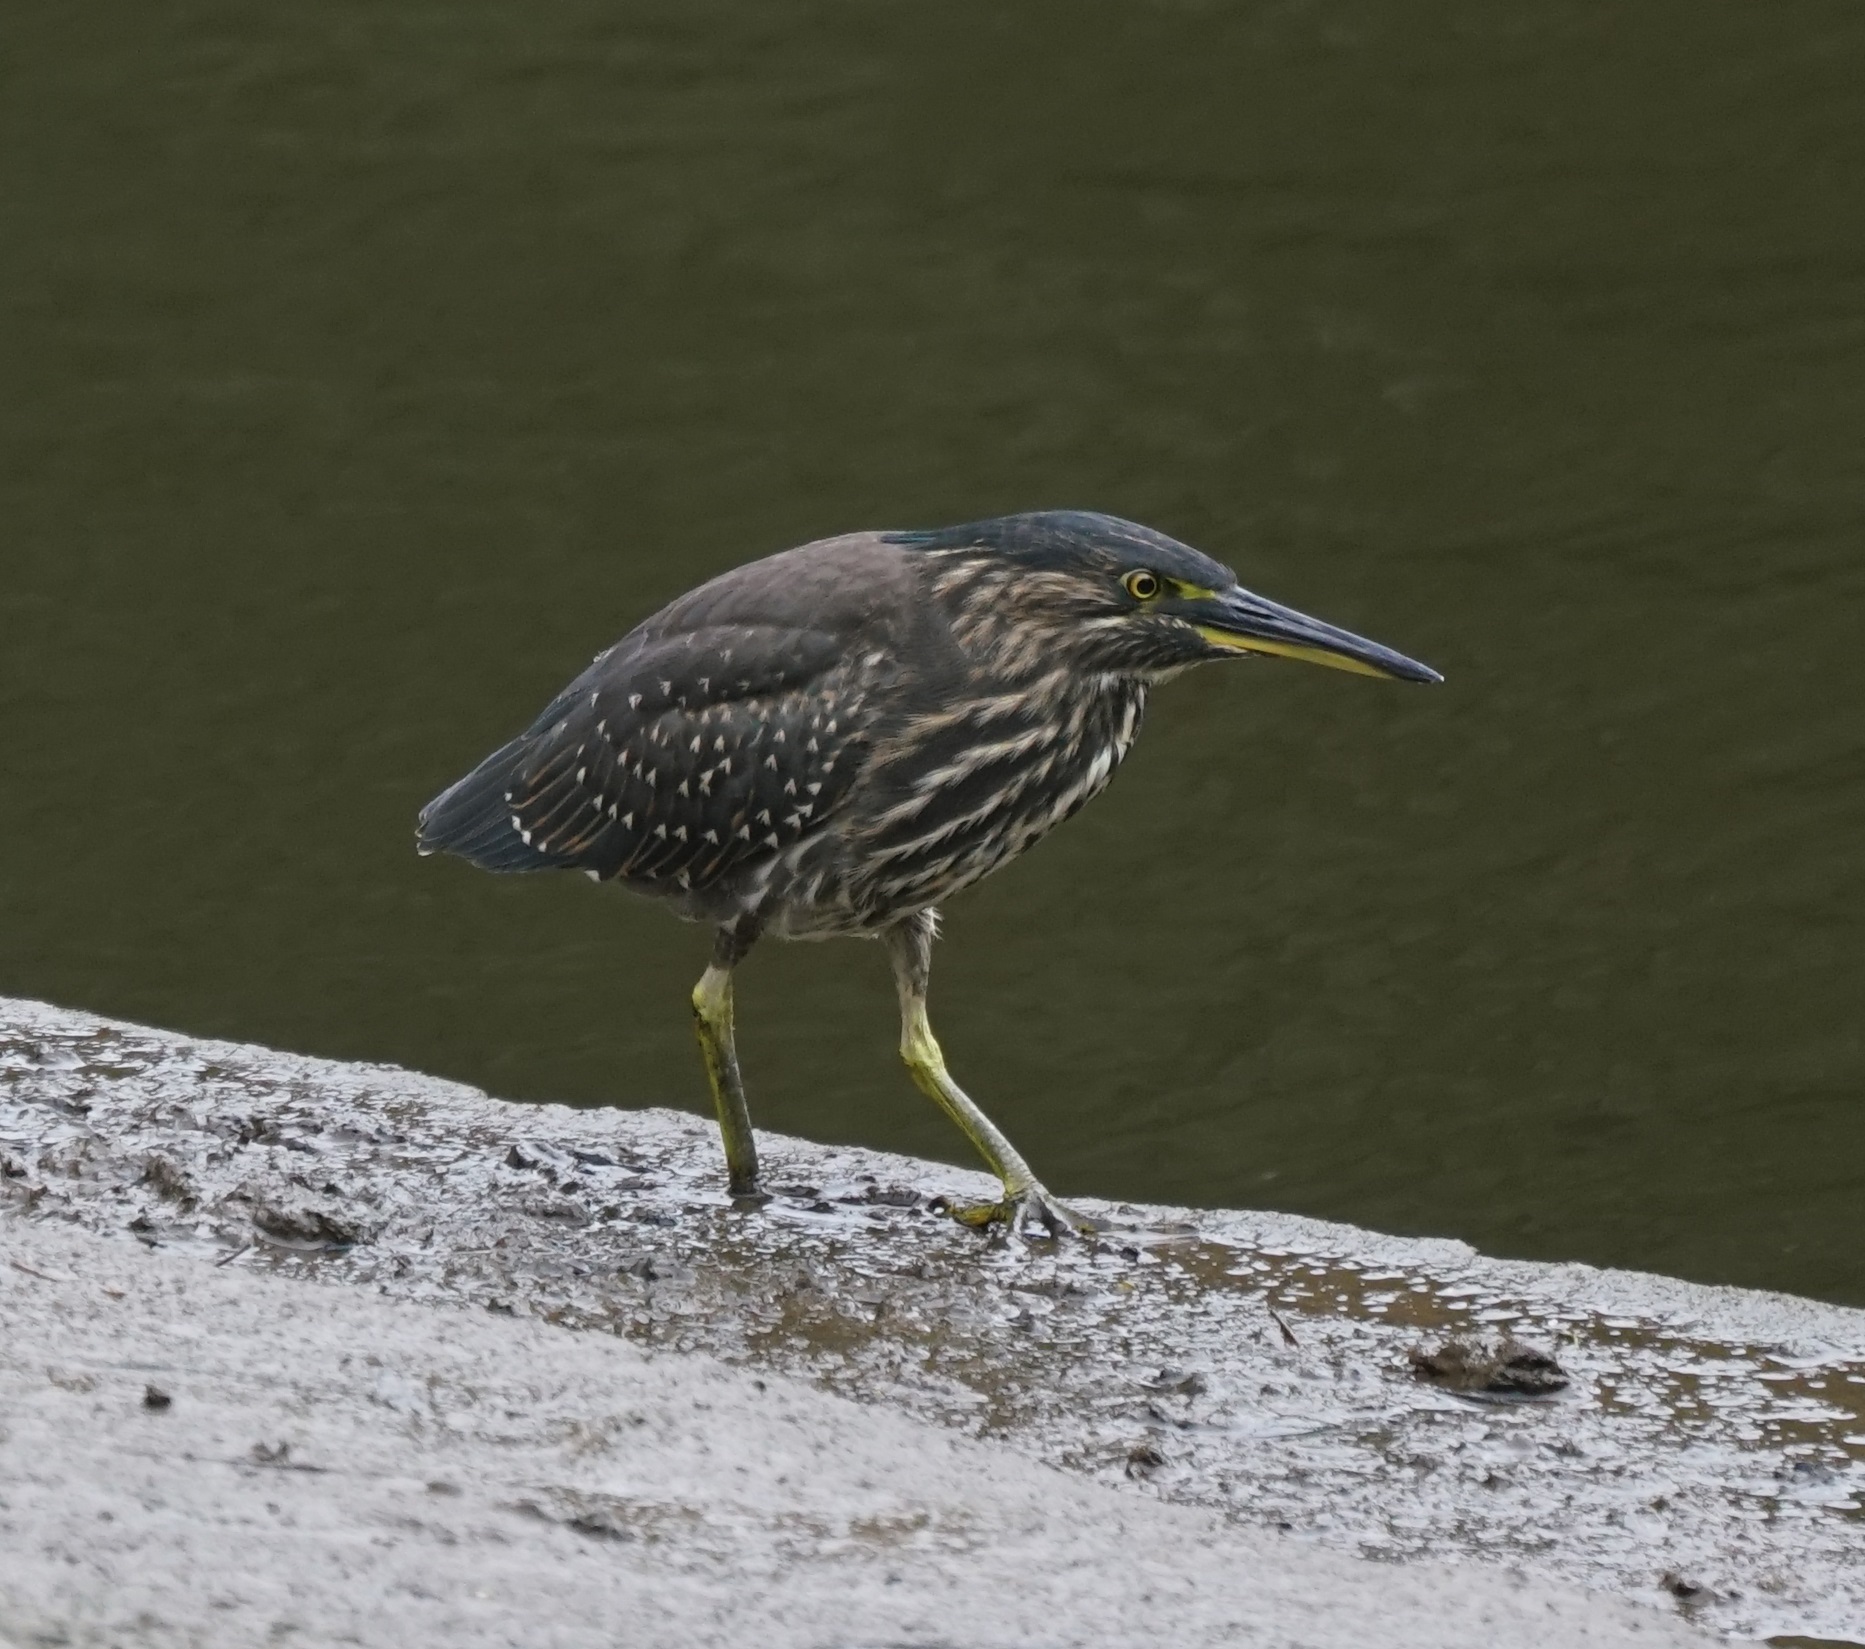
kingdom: Animalia
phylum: Chordata
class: Aves
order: Pelecaniformes
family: Ardeidae
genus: Butorides
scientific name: Butorides striata
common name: Striated heron
